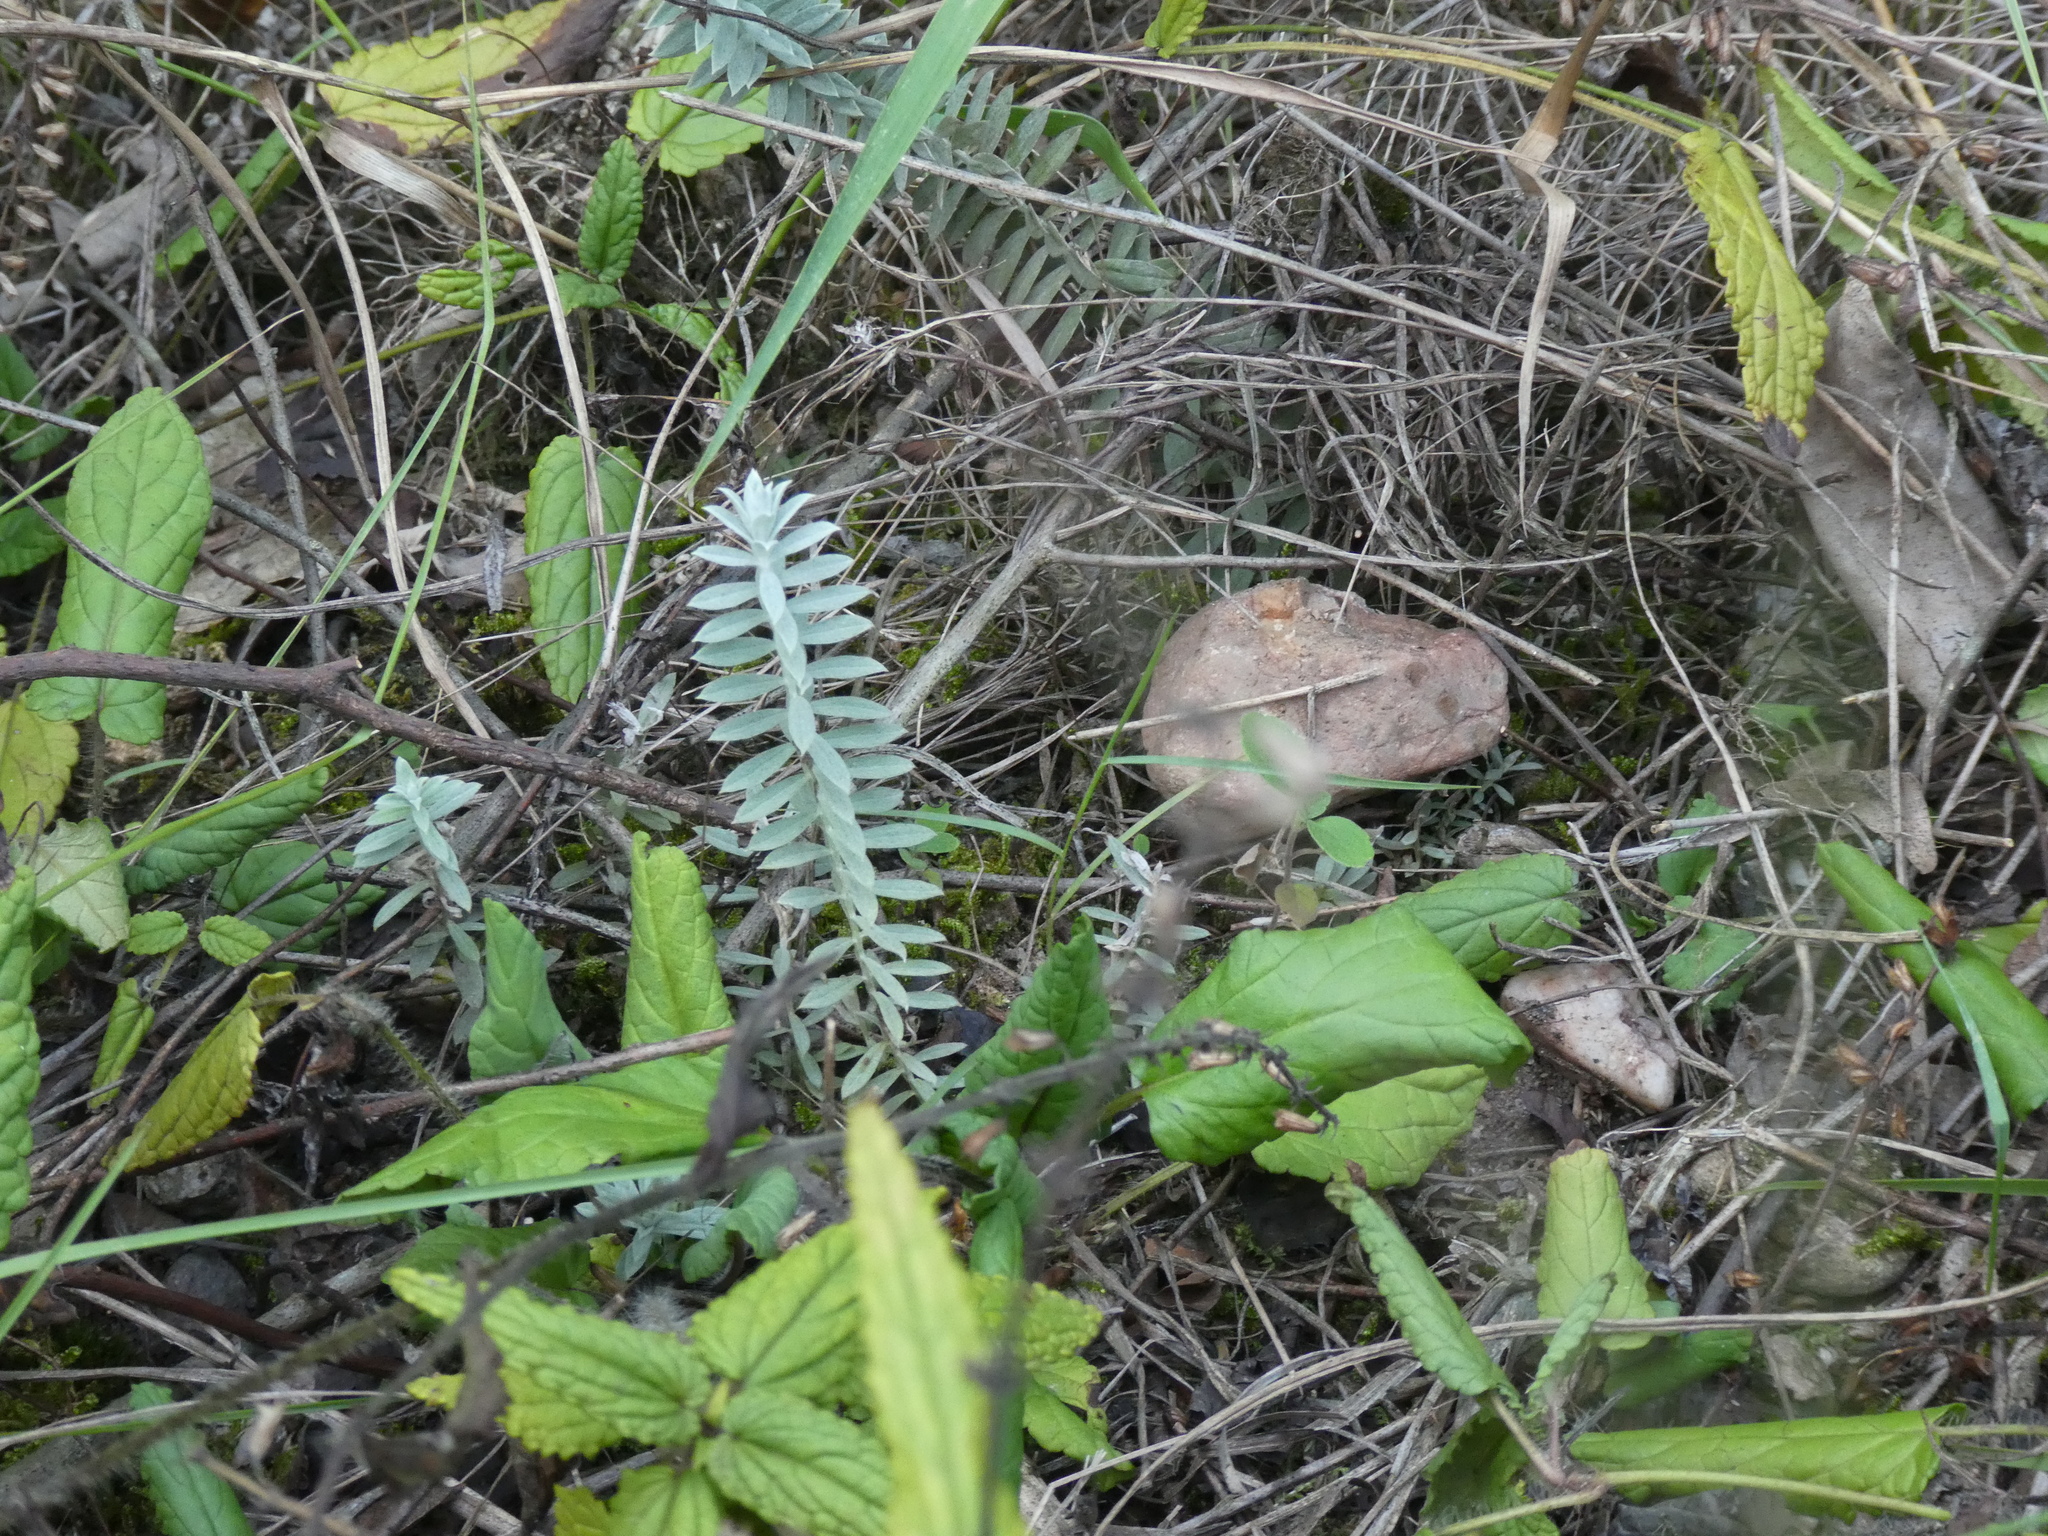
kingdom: Plantae
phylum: Tracheophyta
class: Magnoliopsida
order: Lamiales
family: Orobanchaceae
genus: Monochasma
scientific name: Monochasma savatieri
